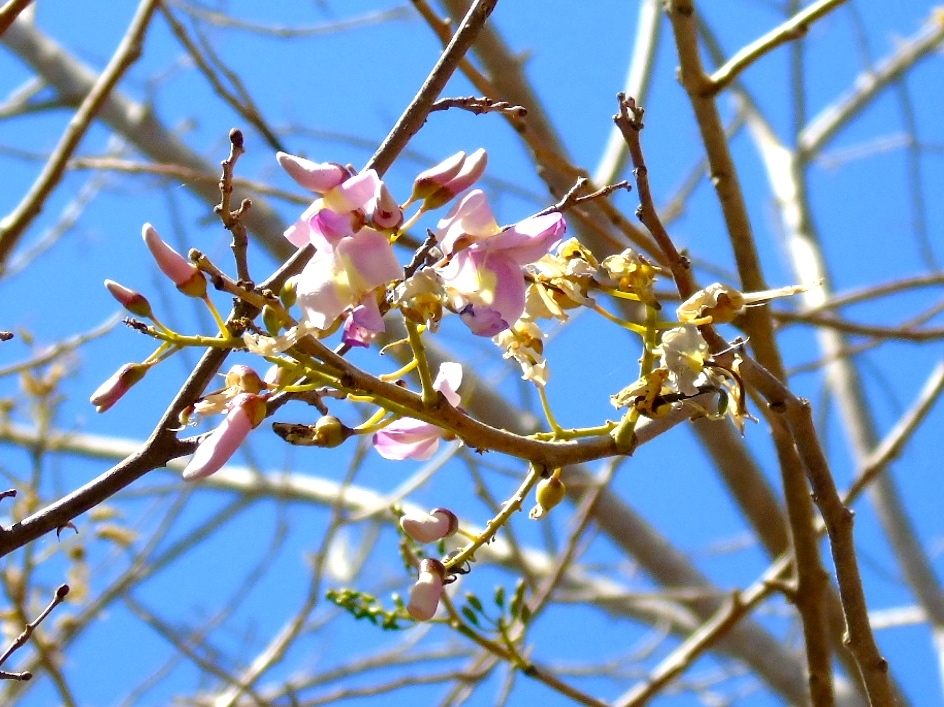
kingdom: Plantae
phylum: Tracheophyta
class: Magnoliopsida
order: Fabales
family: Fabaceae
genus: Gliricidia
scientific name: Gliricidia sepium
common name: Quickstick
